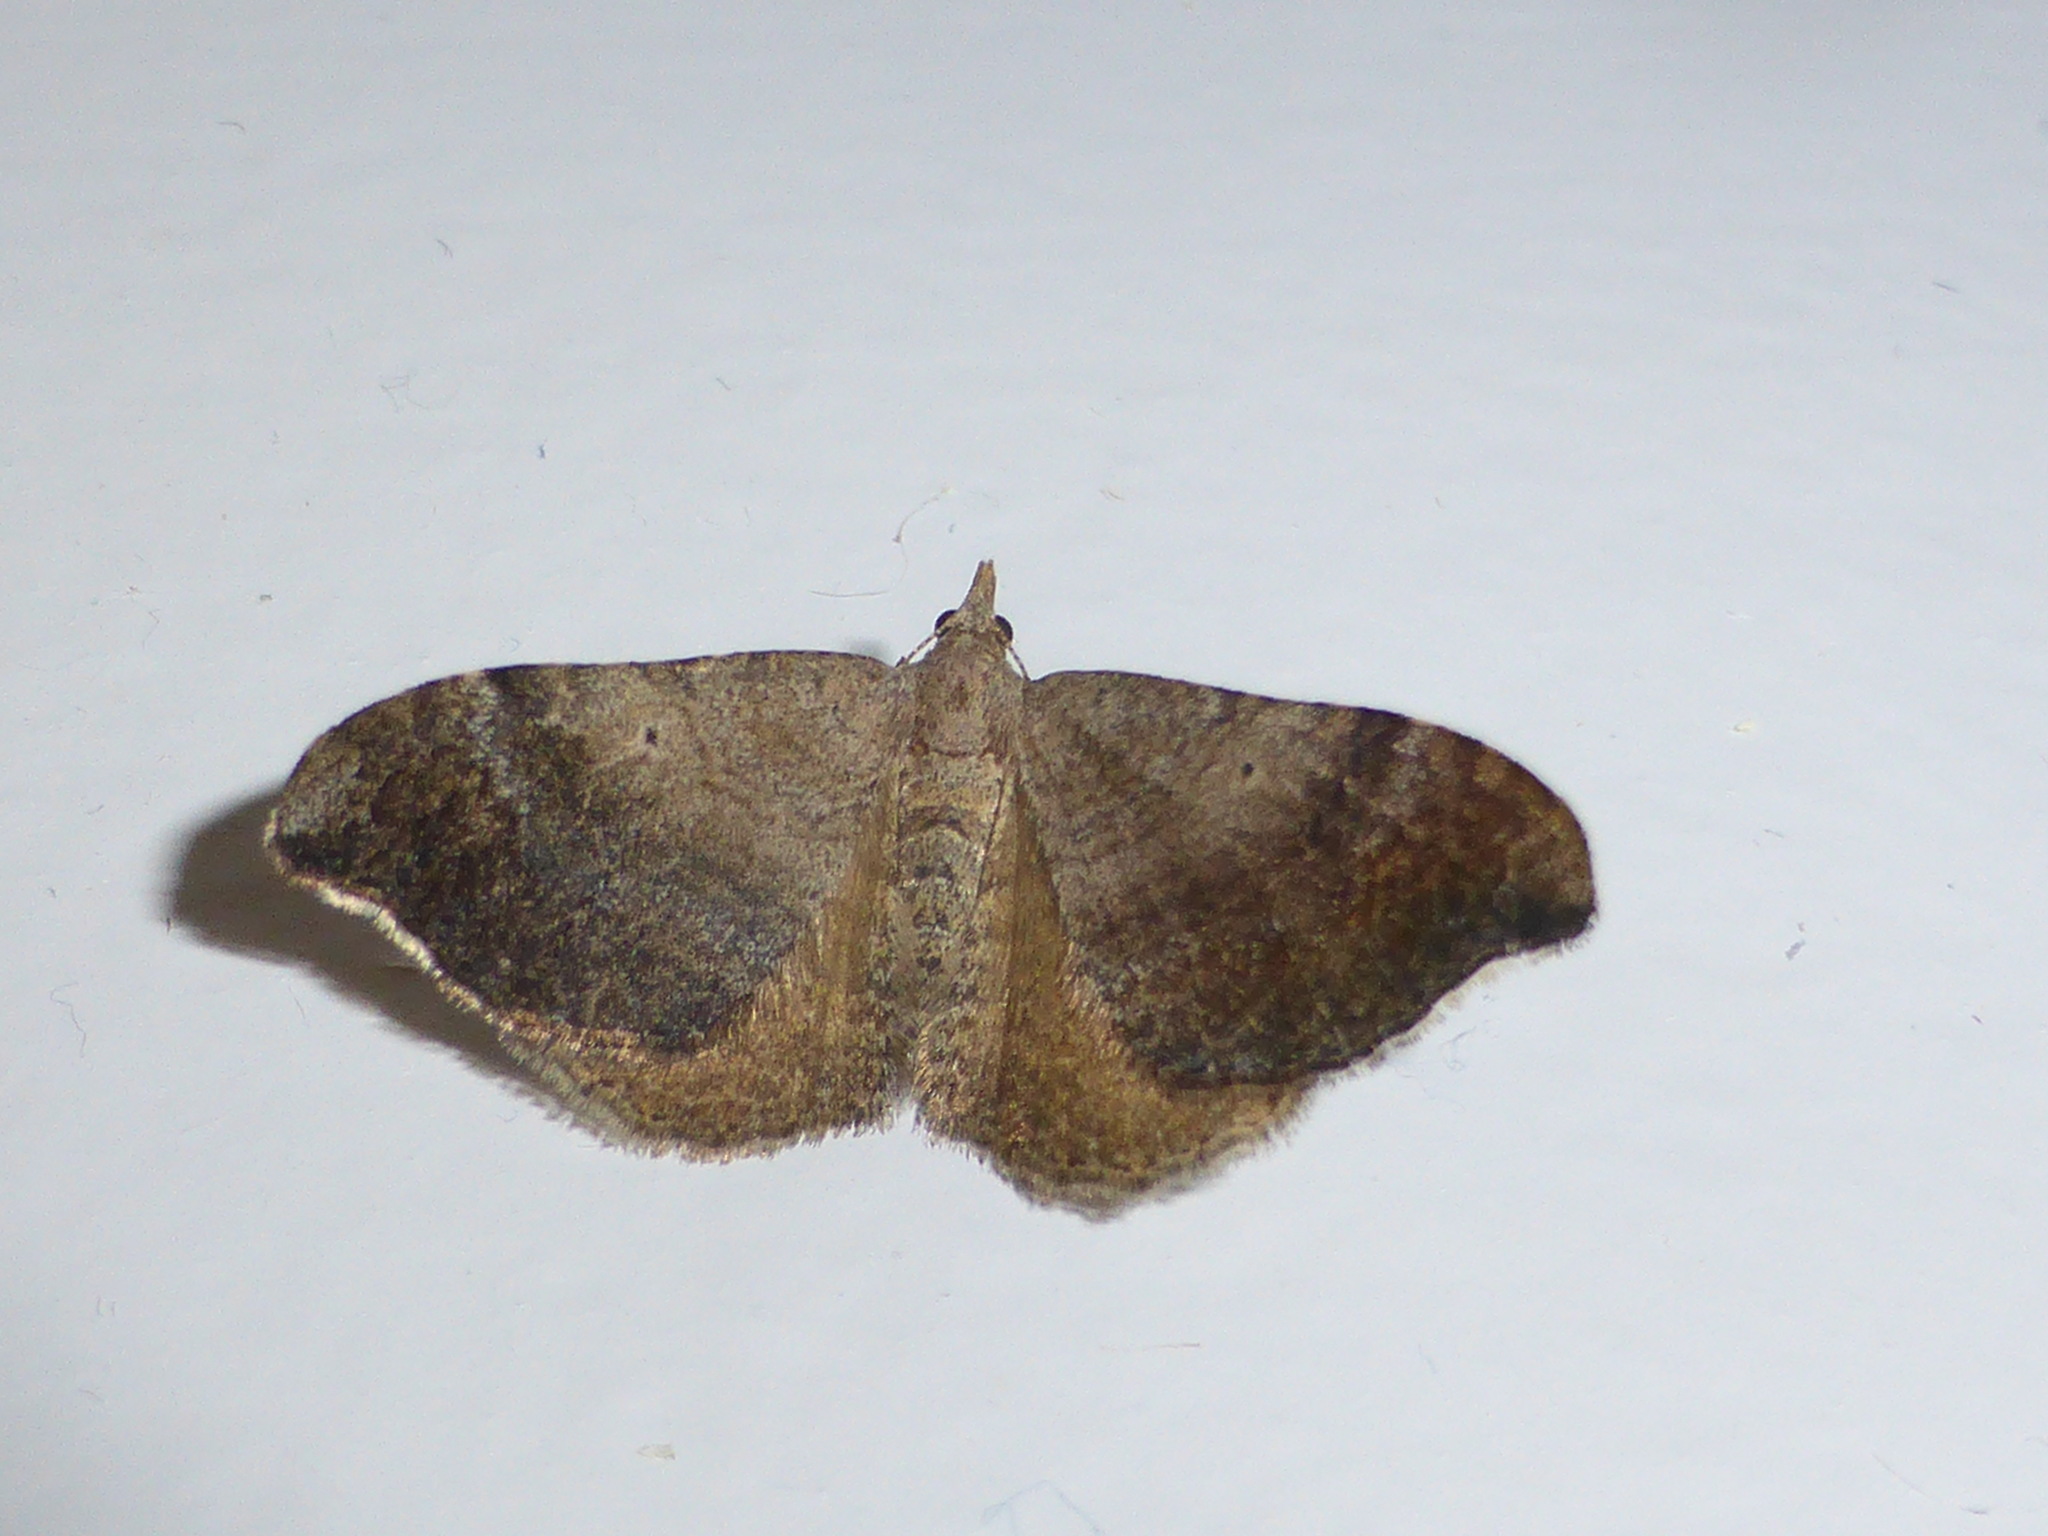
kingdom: Animalia
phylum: Arthropoda
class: Insecta
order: Lepidoptera
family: Geometridae
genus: Homodotis
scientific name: Homodotis megaspilata
